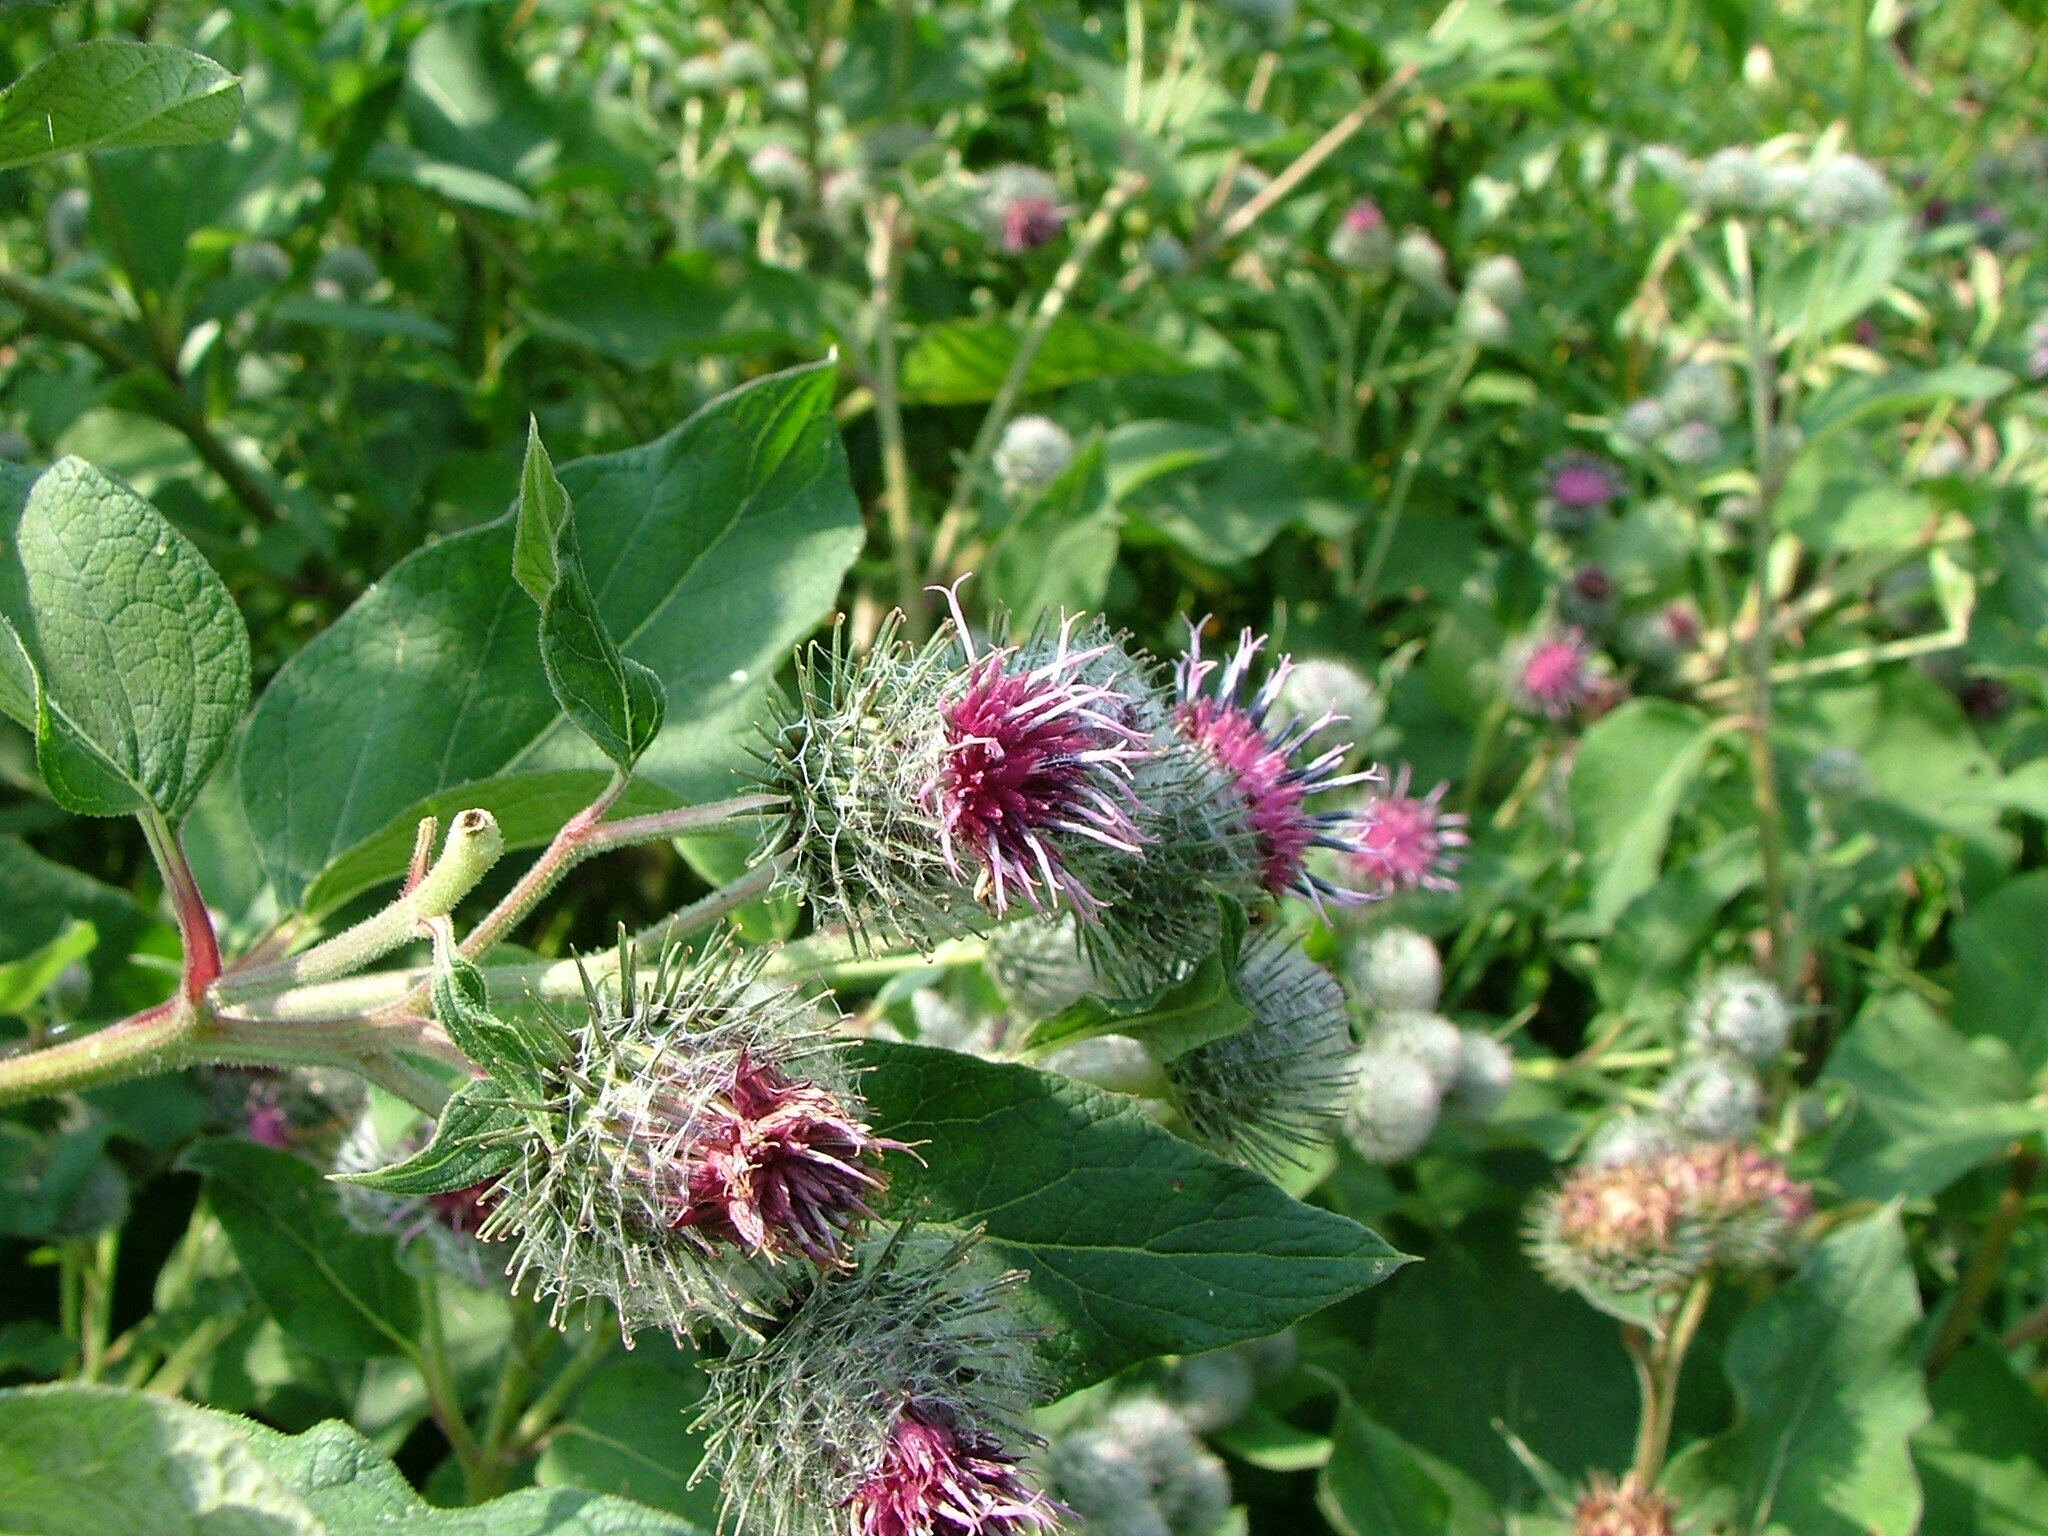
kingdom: Plantae
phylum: Tracheophyta
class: Magnoliopsida
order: Asterales
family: Asteraceae
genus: Arctium
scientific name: Arctium tomentosum
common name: Woolly burdock
